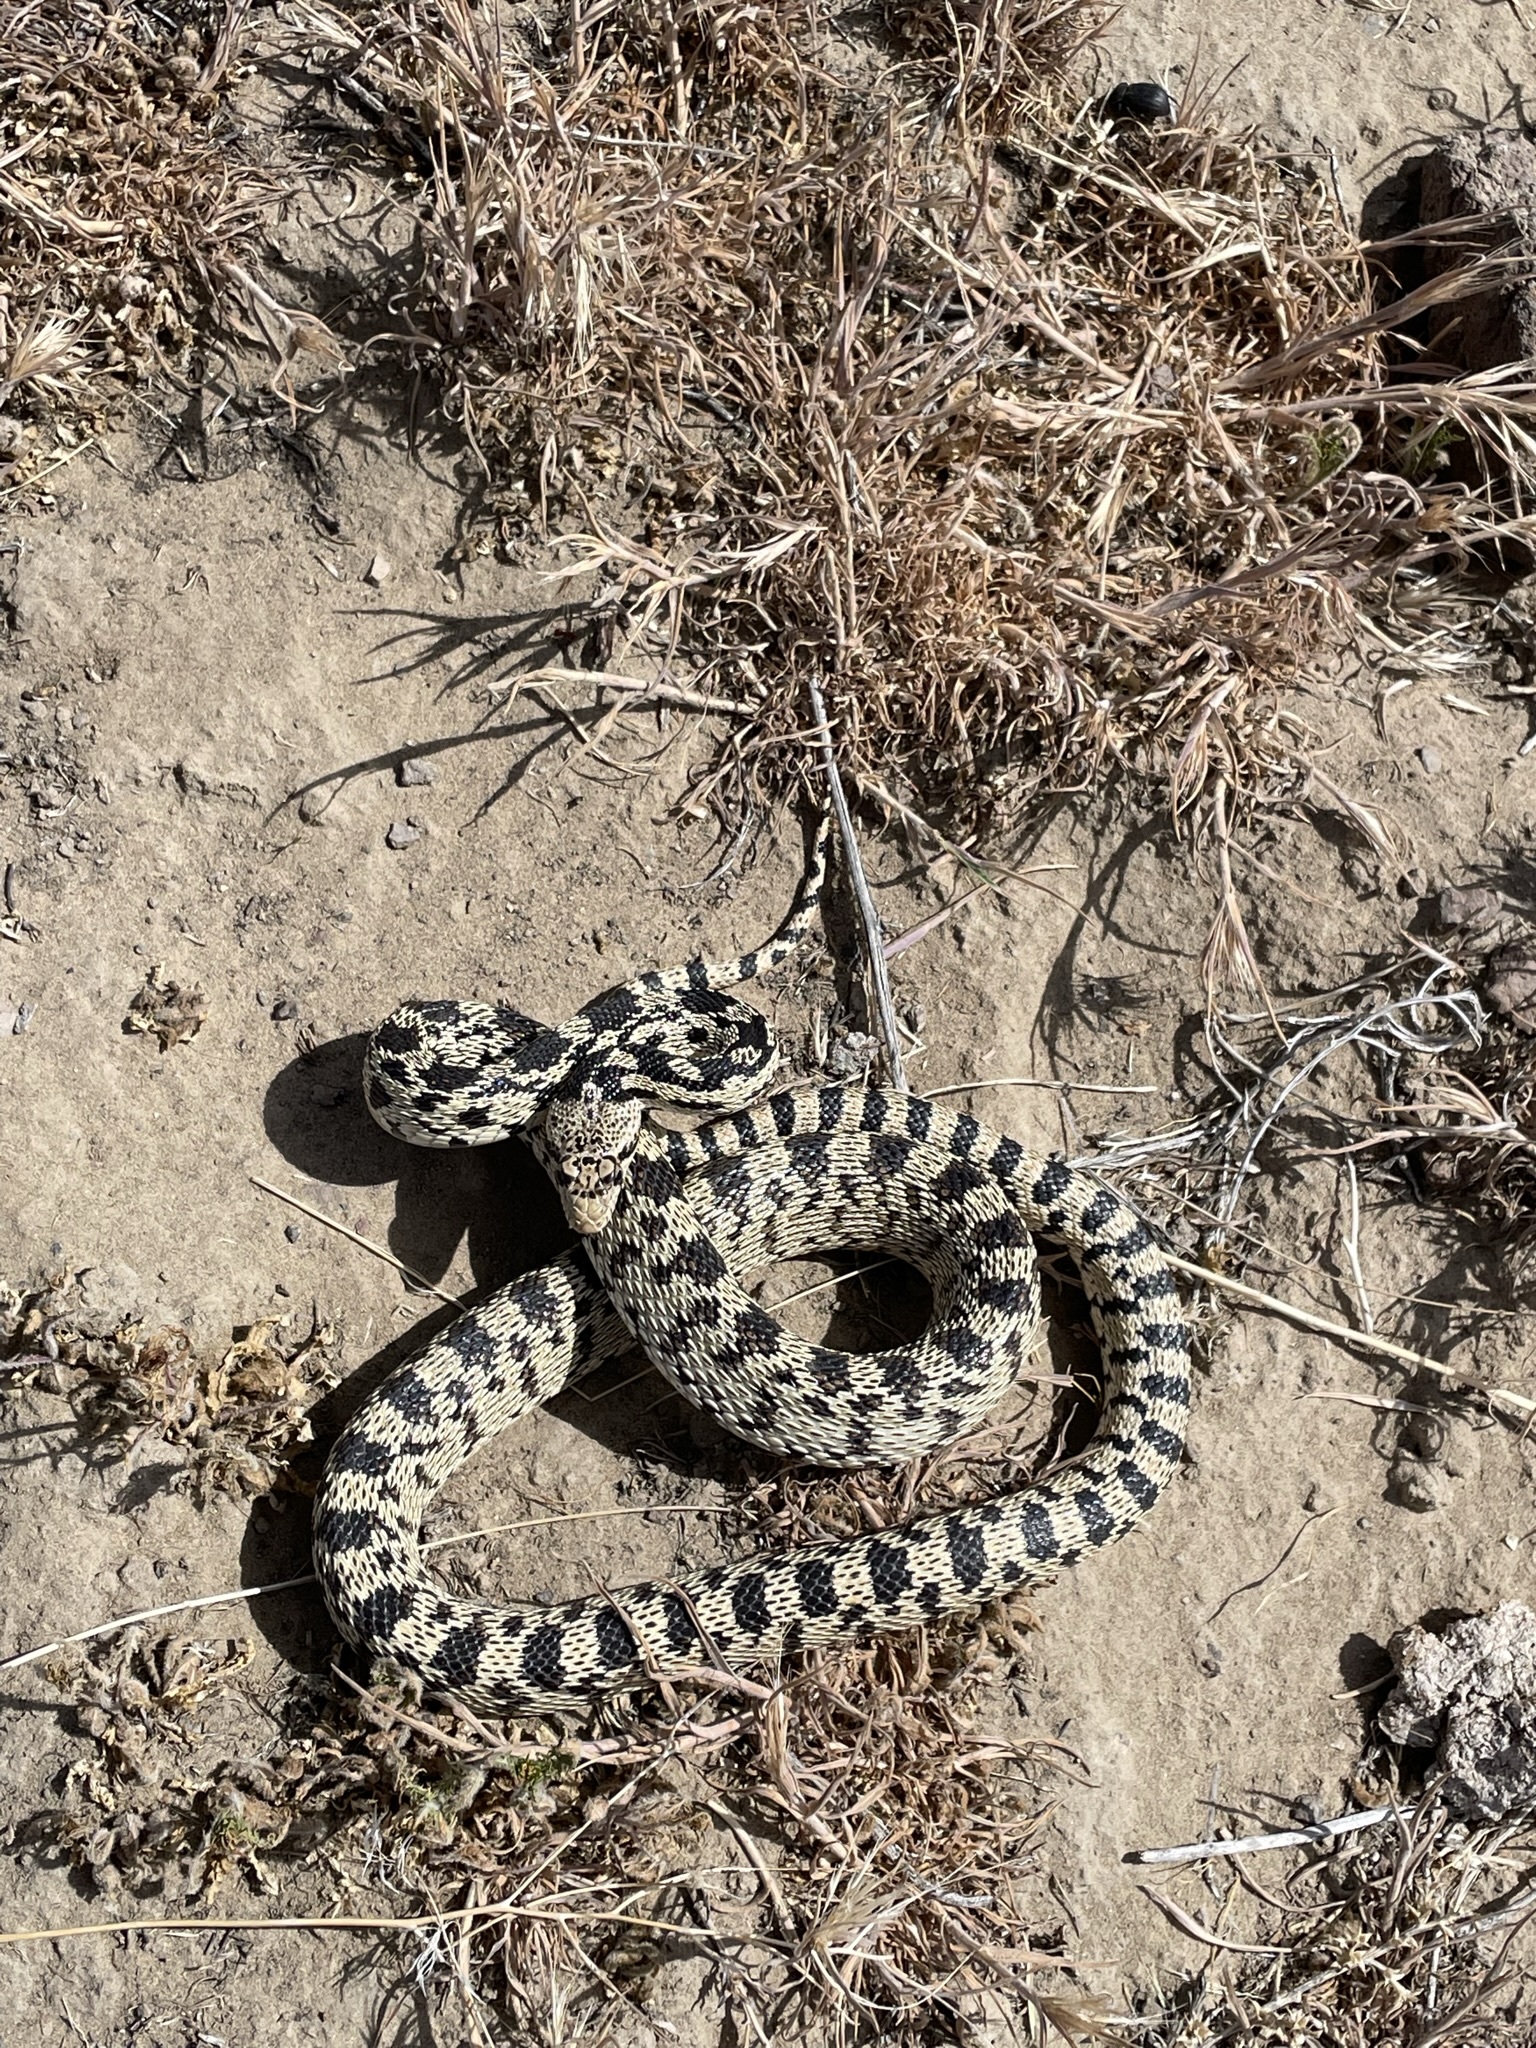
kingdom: Animalia
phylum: Chordata
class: Squamata
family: Colubridae
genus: Pituophis
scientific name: Pituophis catenifer
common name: Gopher snake
